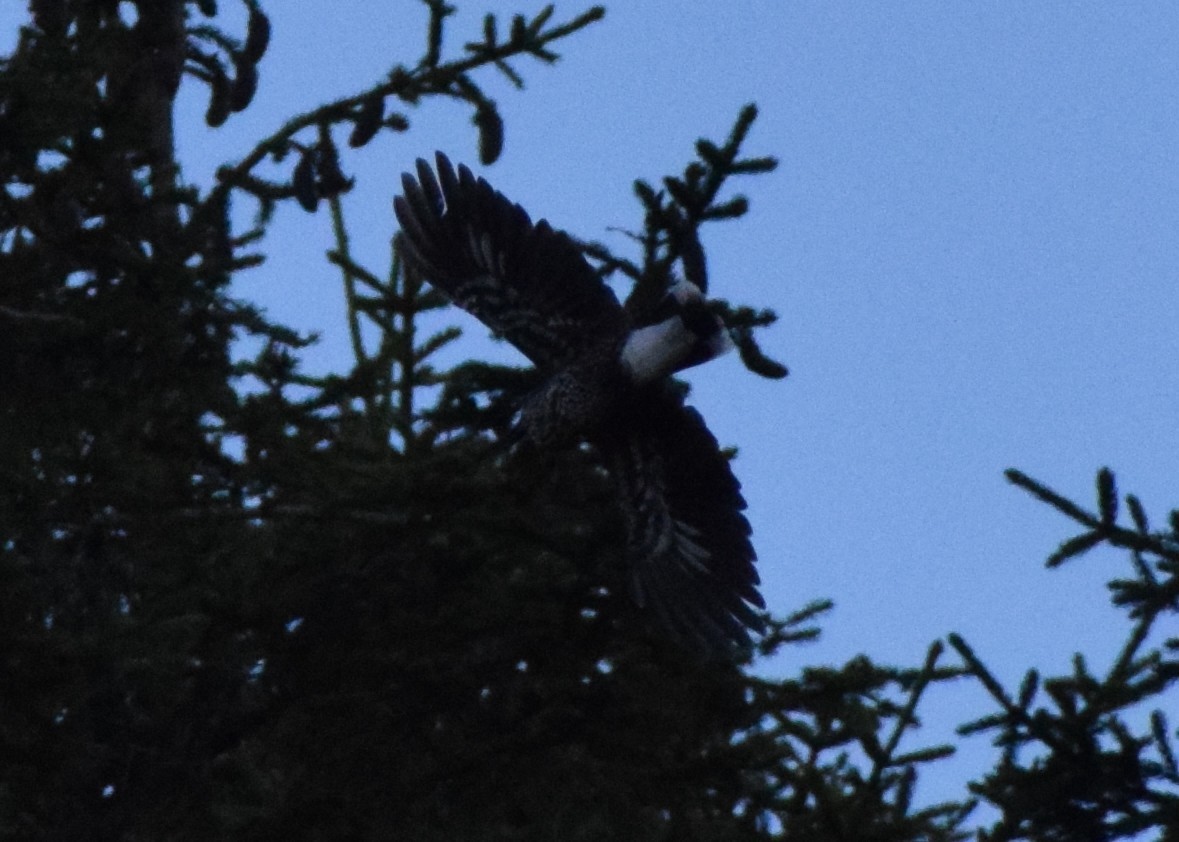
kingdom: Animalia
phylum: Chordata
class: Aves
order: Passeriformes
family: Corvidae
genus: Nucifraga
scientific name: Nucifraga caryocatactes
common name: Spotted nutcracker
